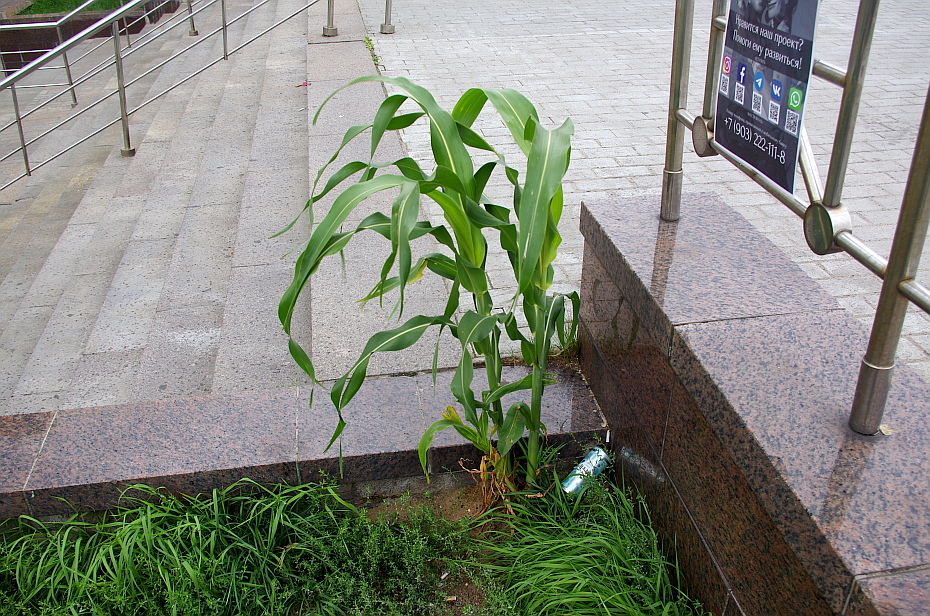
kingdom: Plantae
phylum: Tracheophyta
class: Liliopsida
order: Poales
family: Poaceae
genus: Zea
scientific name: Zea mays
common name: Maize
